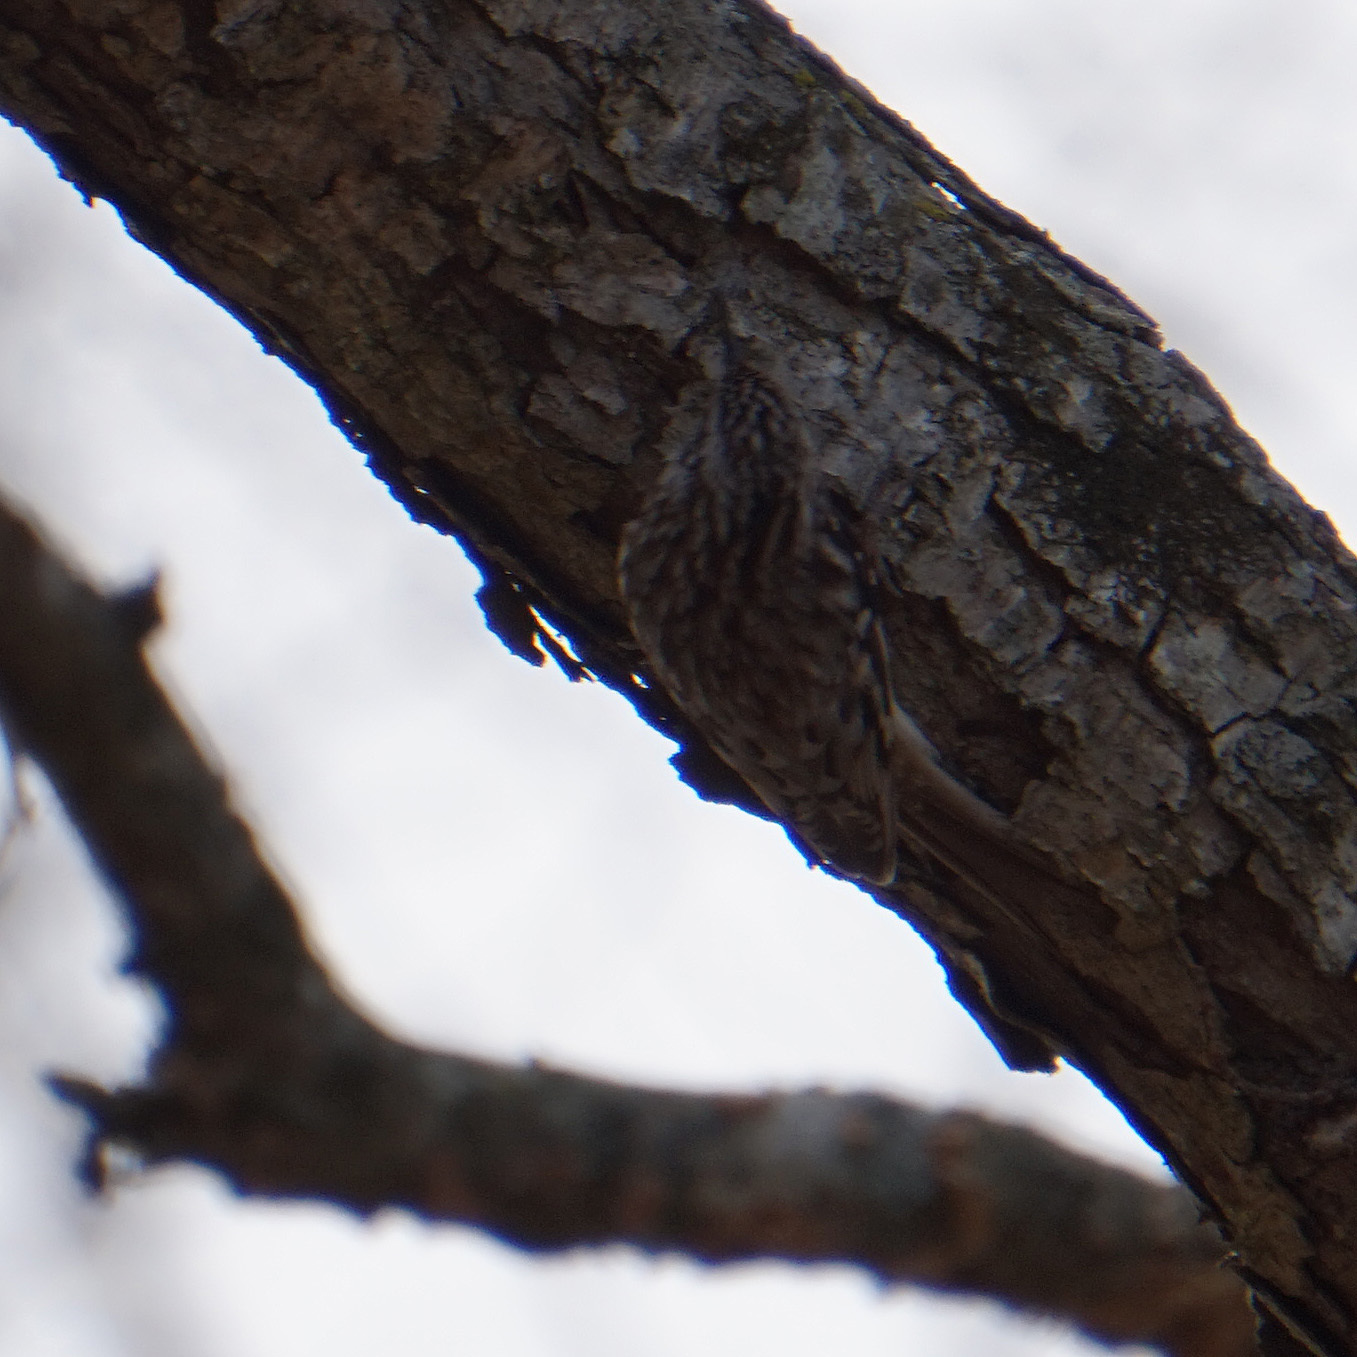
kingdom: Animalia
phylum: Chordata
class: Aves
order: Passeriformes
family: Certhiidae
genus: Certhia
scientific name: Certhia americana
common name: Brown creeper
